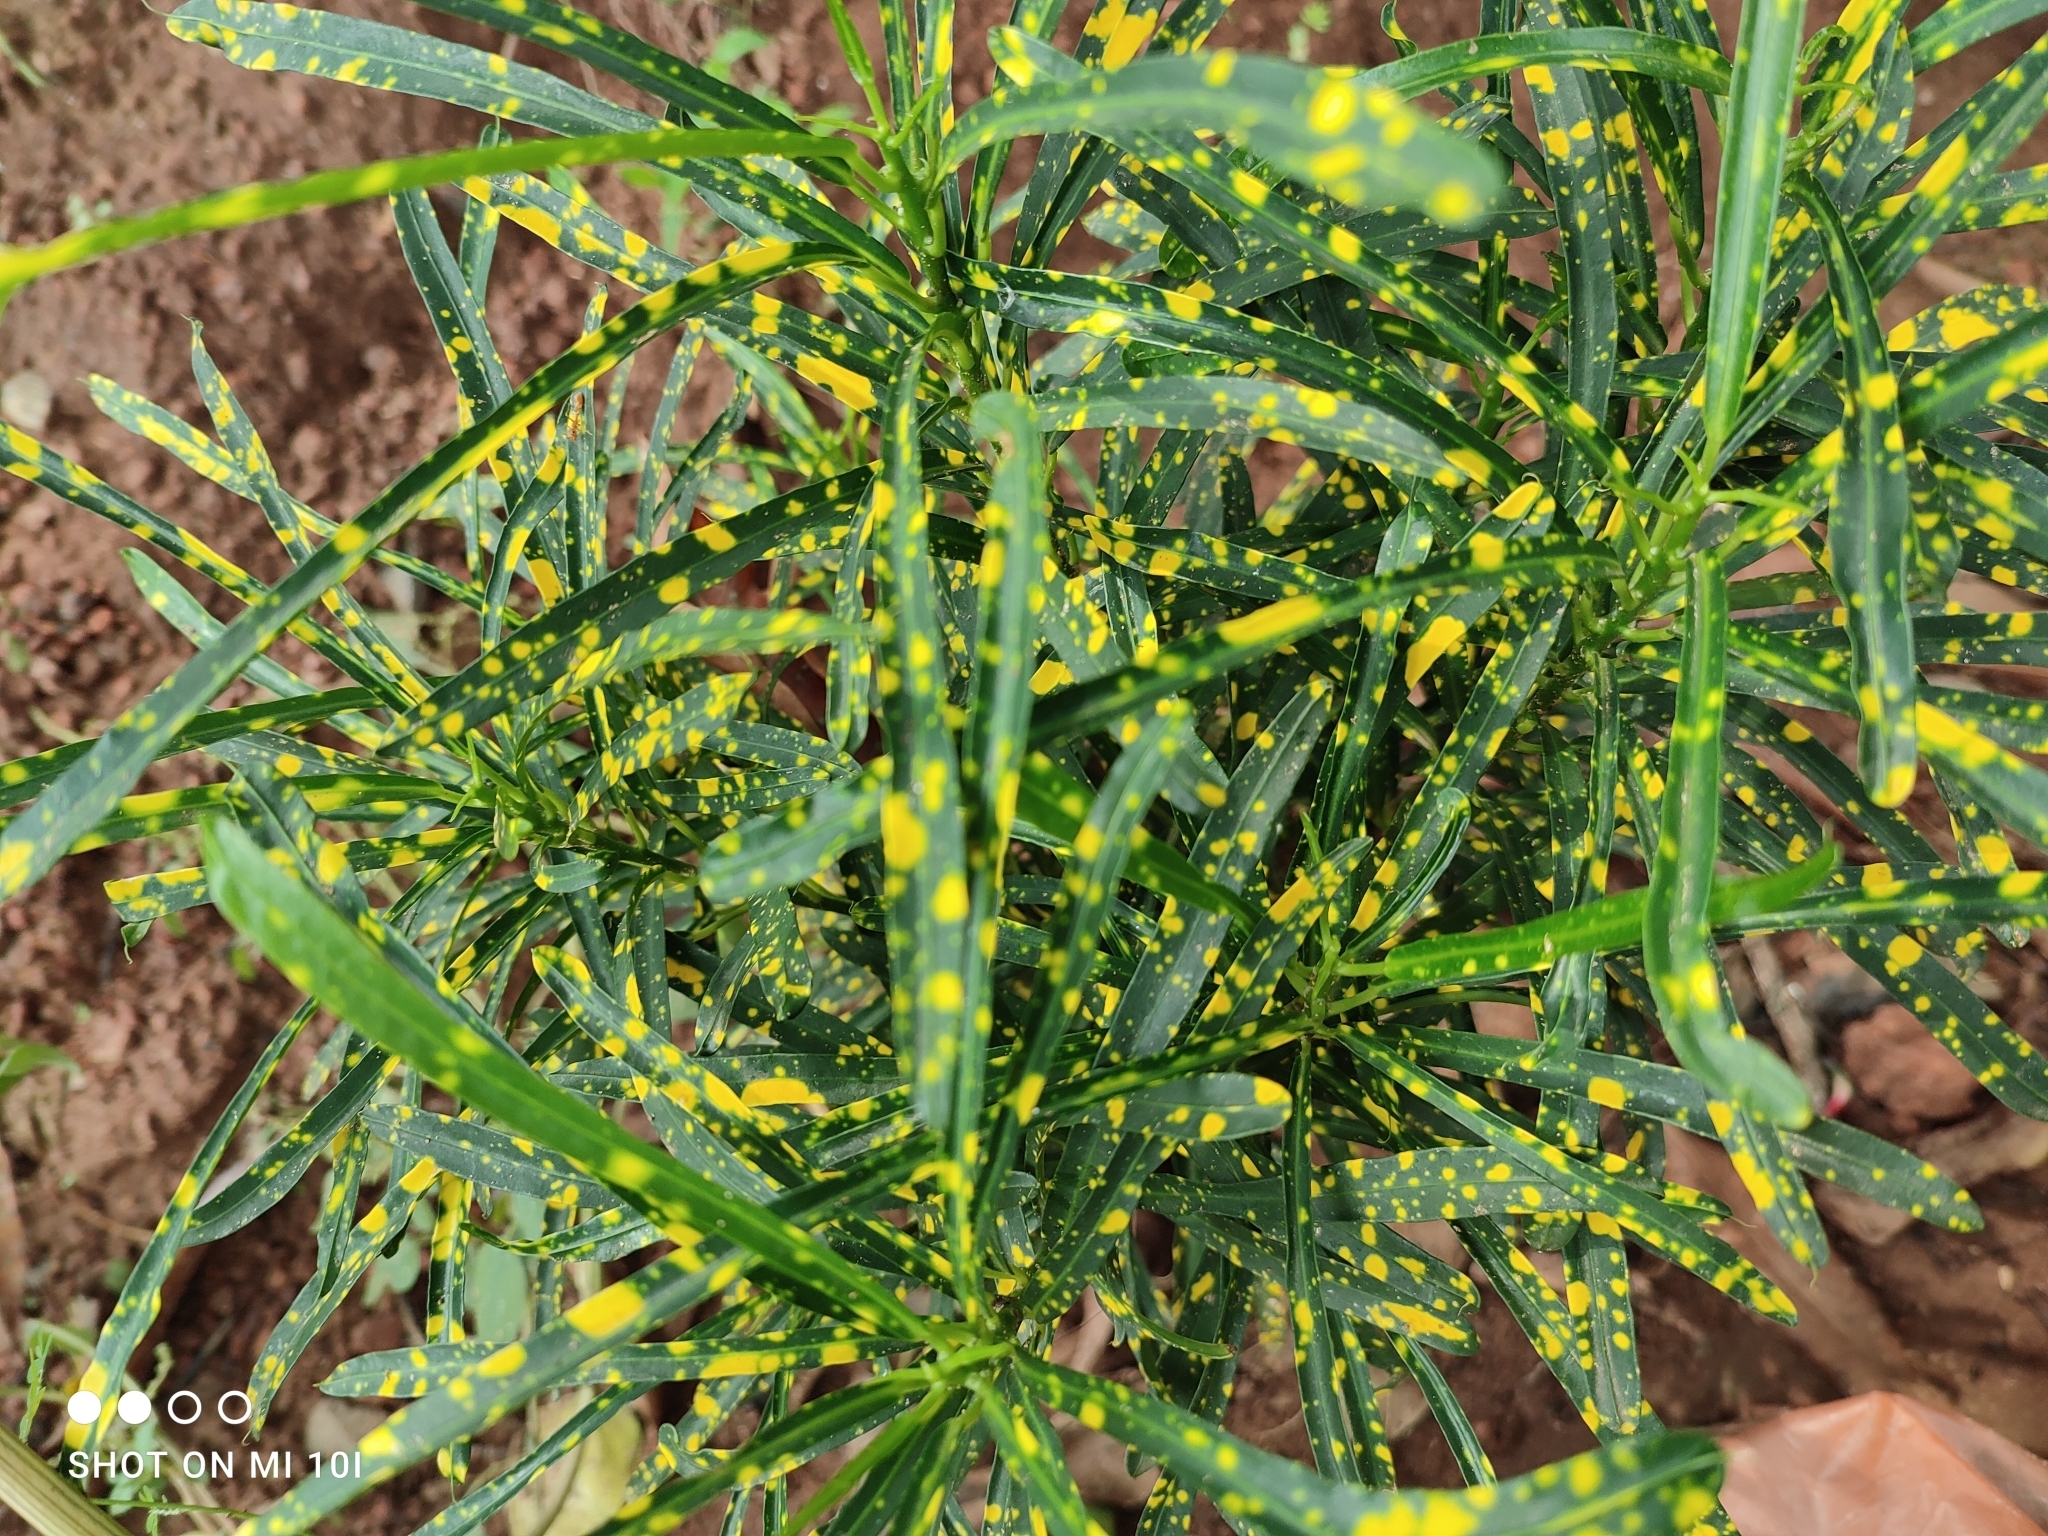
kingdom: Plantae
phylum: Tracheophyta
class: Magnoliopsida
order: Malpighiales
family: Euphorbiaceae
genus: Codiaeum
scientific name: Codiaeum variegatum
